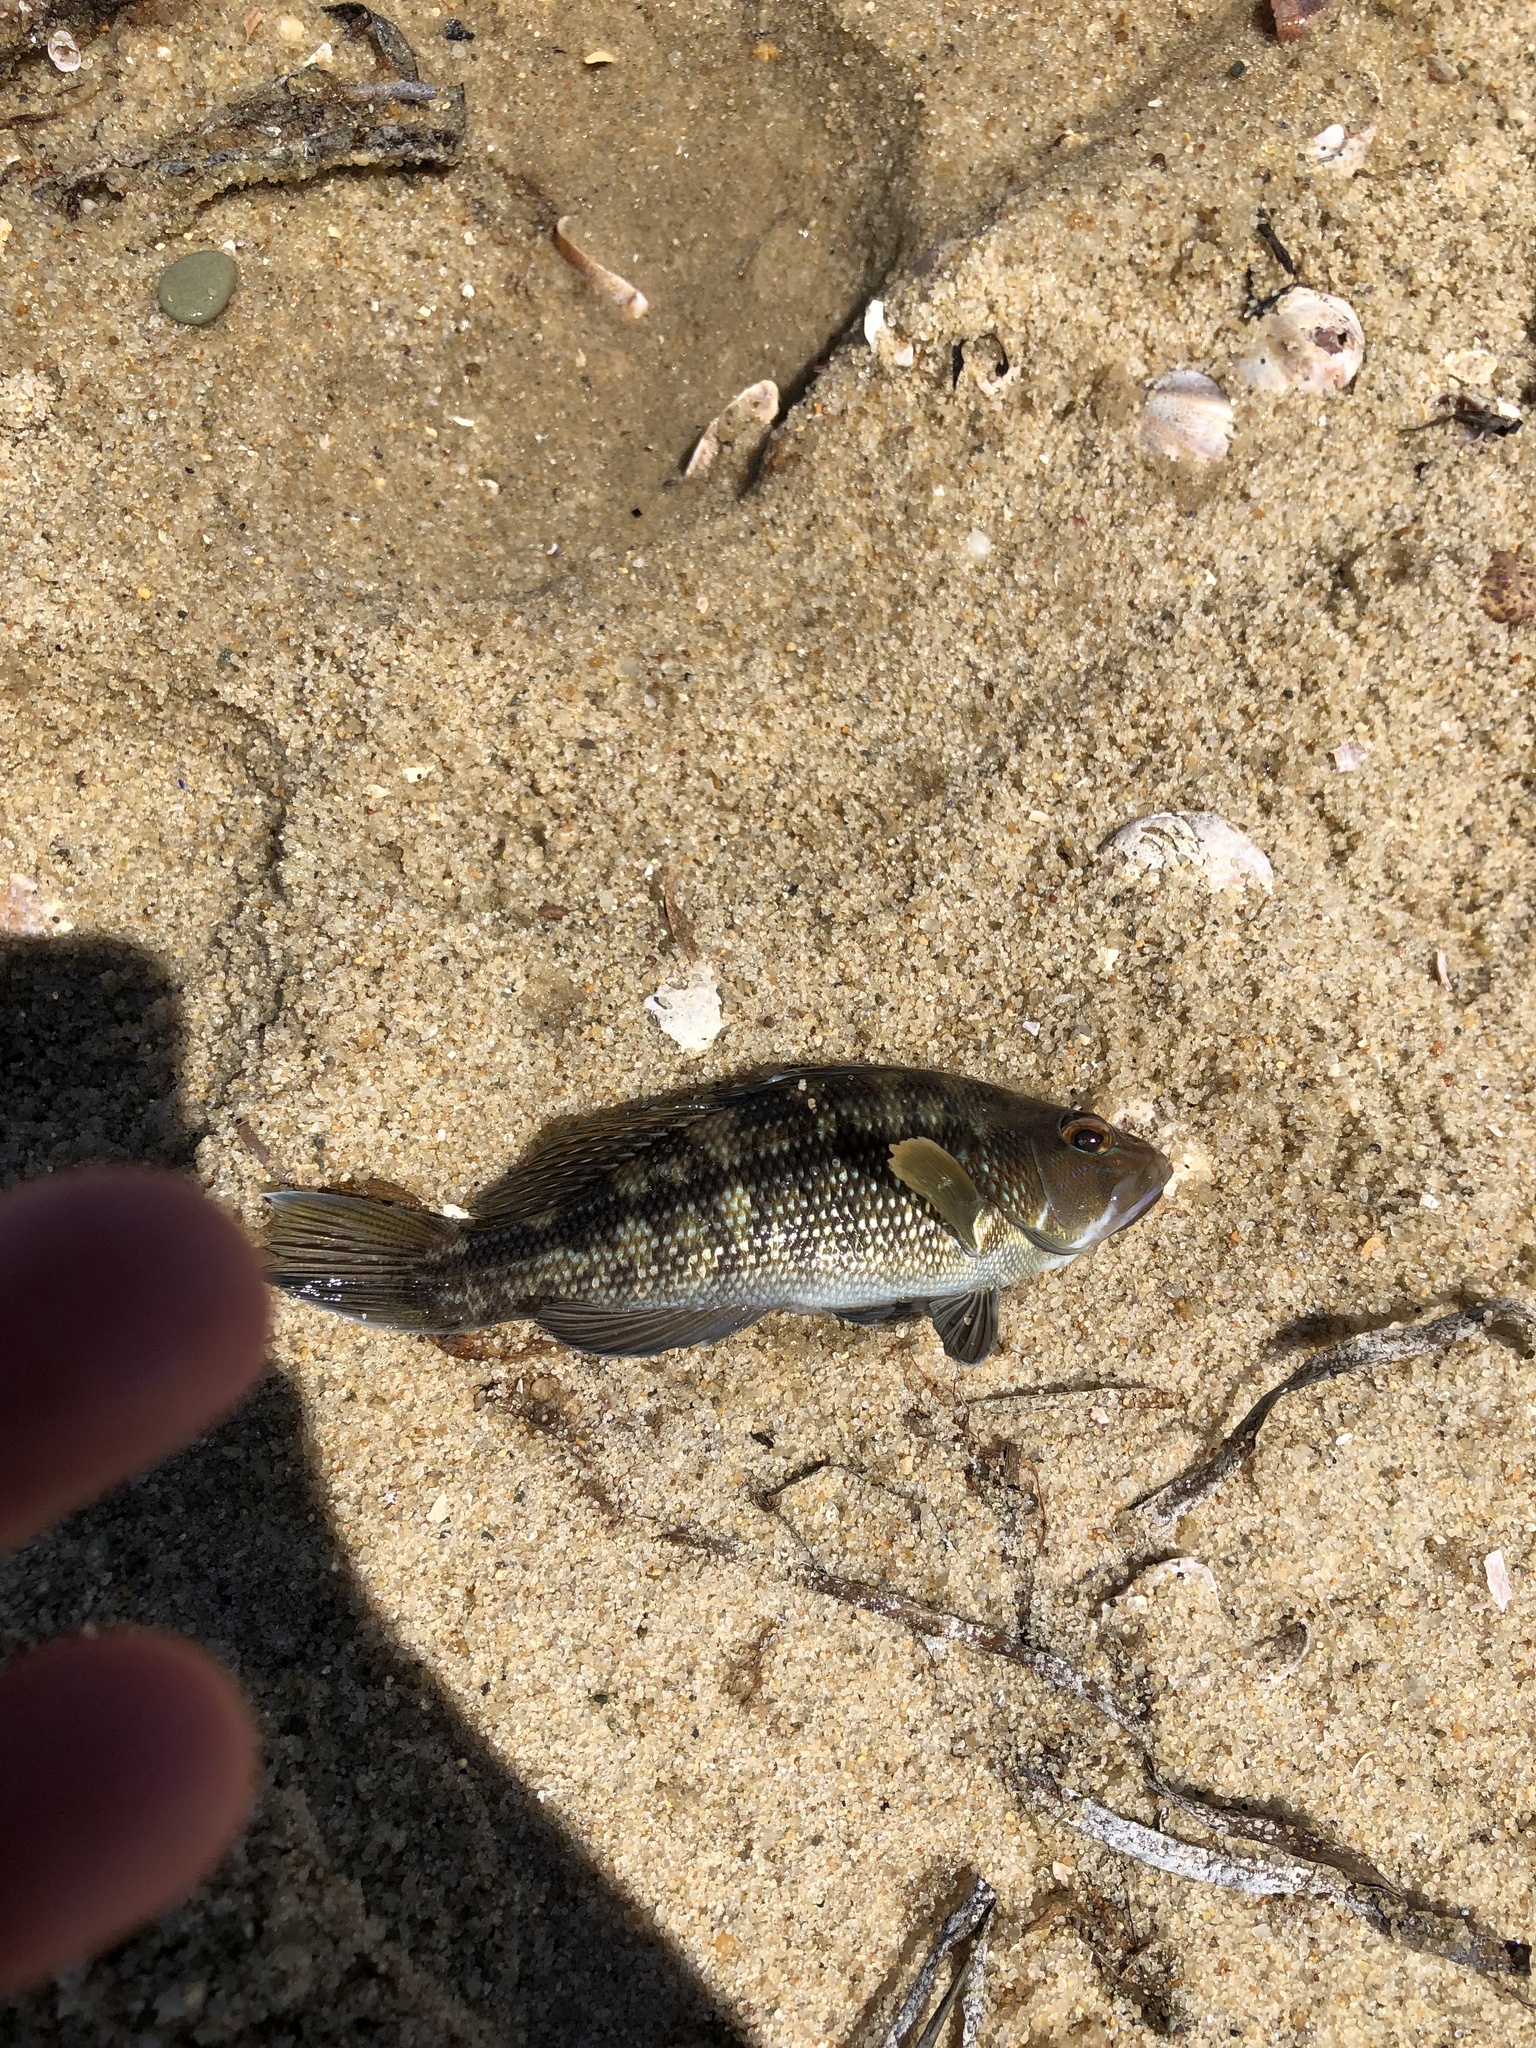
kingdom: Animalia
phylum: Chordata
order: Perciformes
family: Serranidae
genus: Centropristis
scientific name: Centropristis striata
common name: Black sea bass
